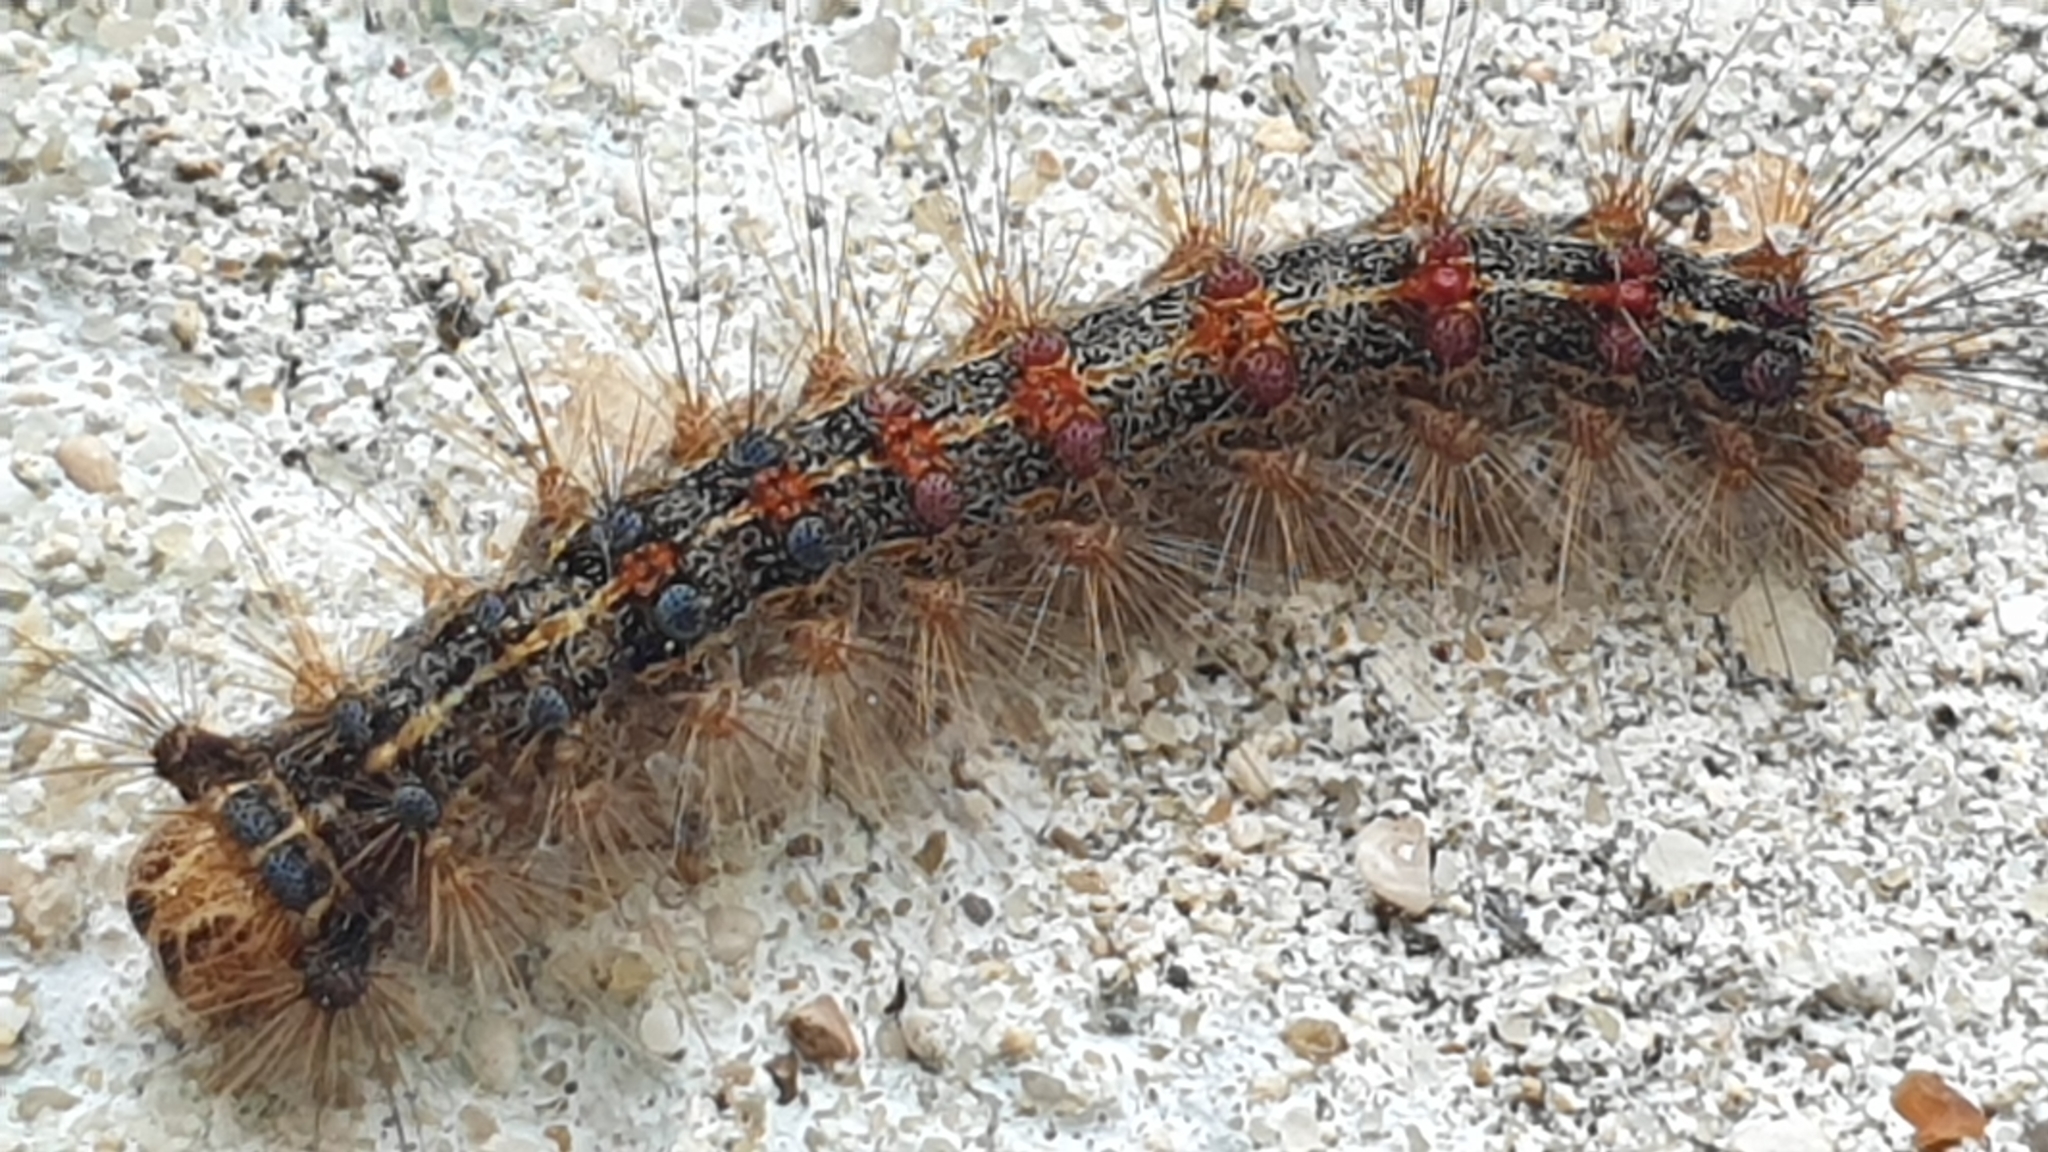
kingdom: Animalia
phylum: Arthropoda
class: Insecta
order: Lepidoptera
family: Erebidae
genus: Lymantria
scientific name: Lymantria dispar
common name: Gypsy moth
